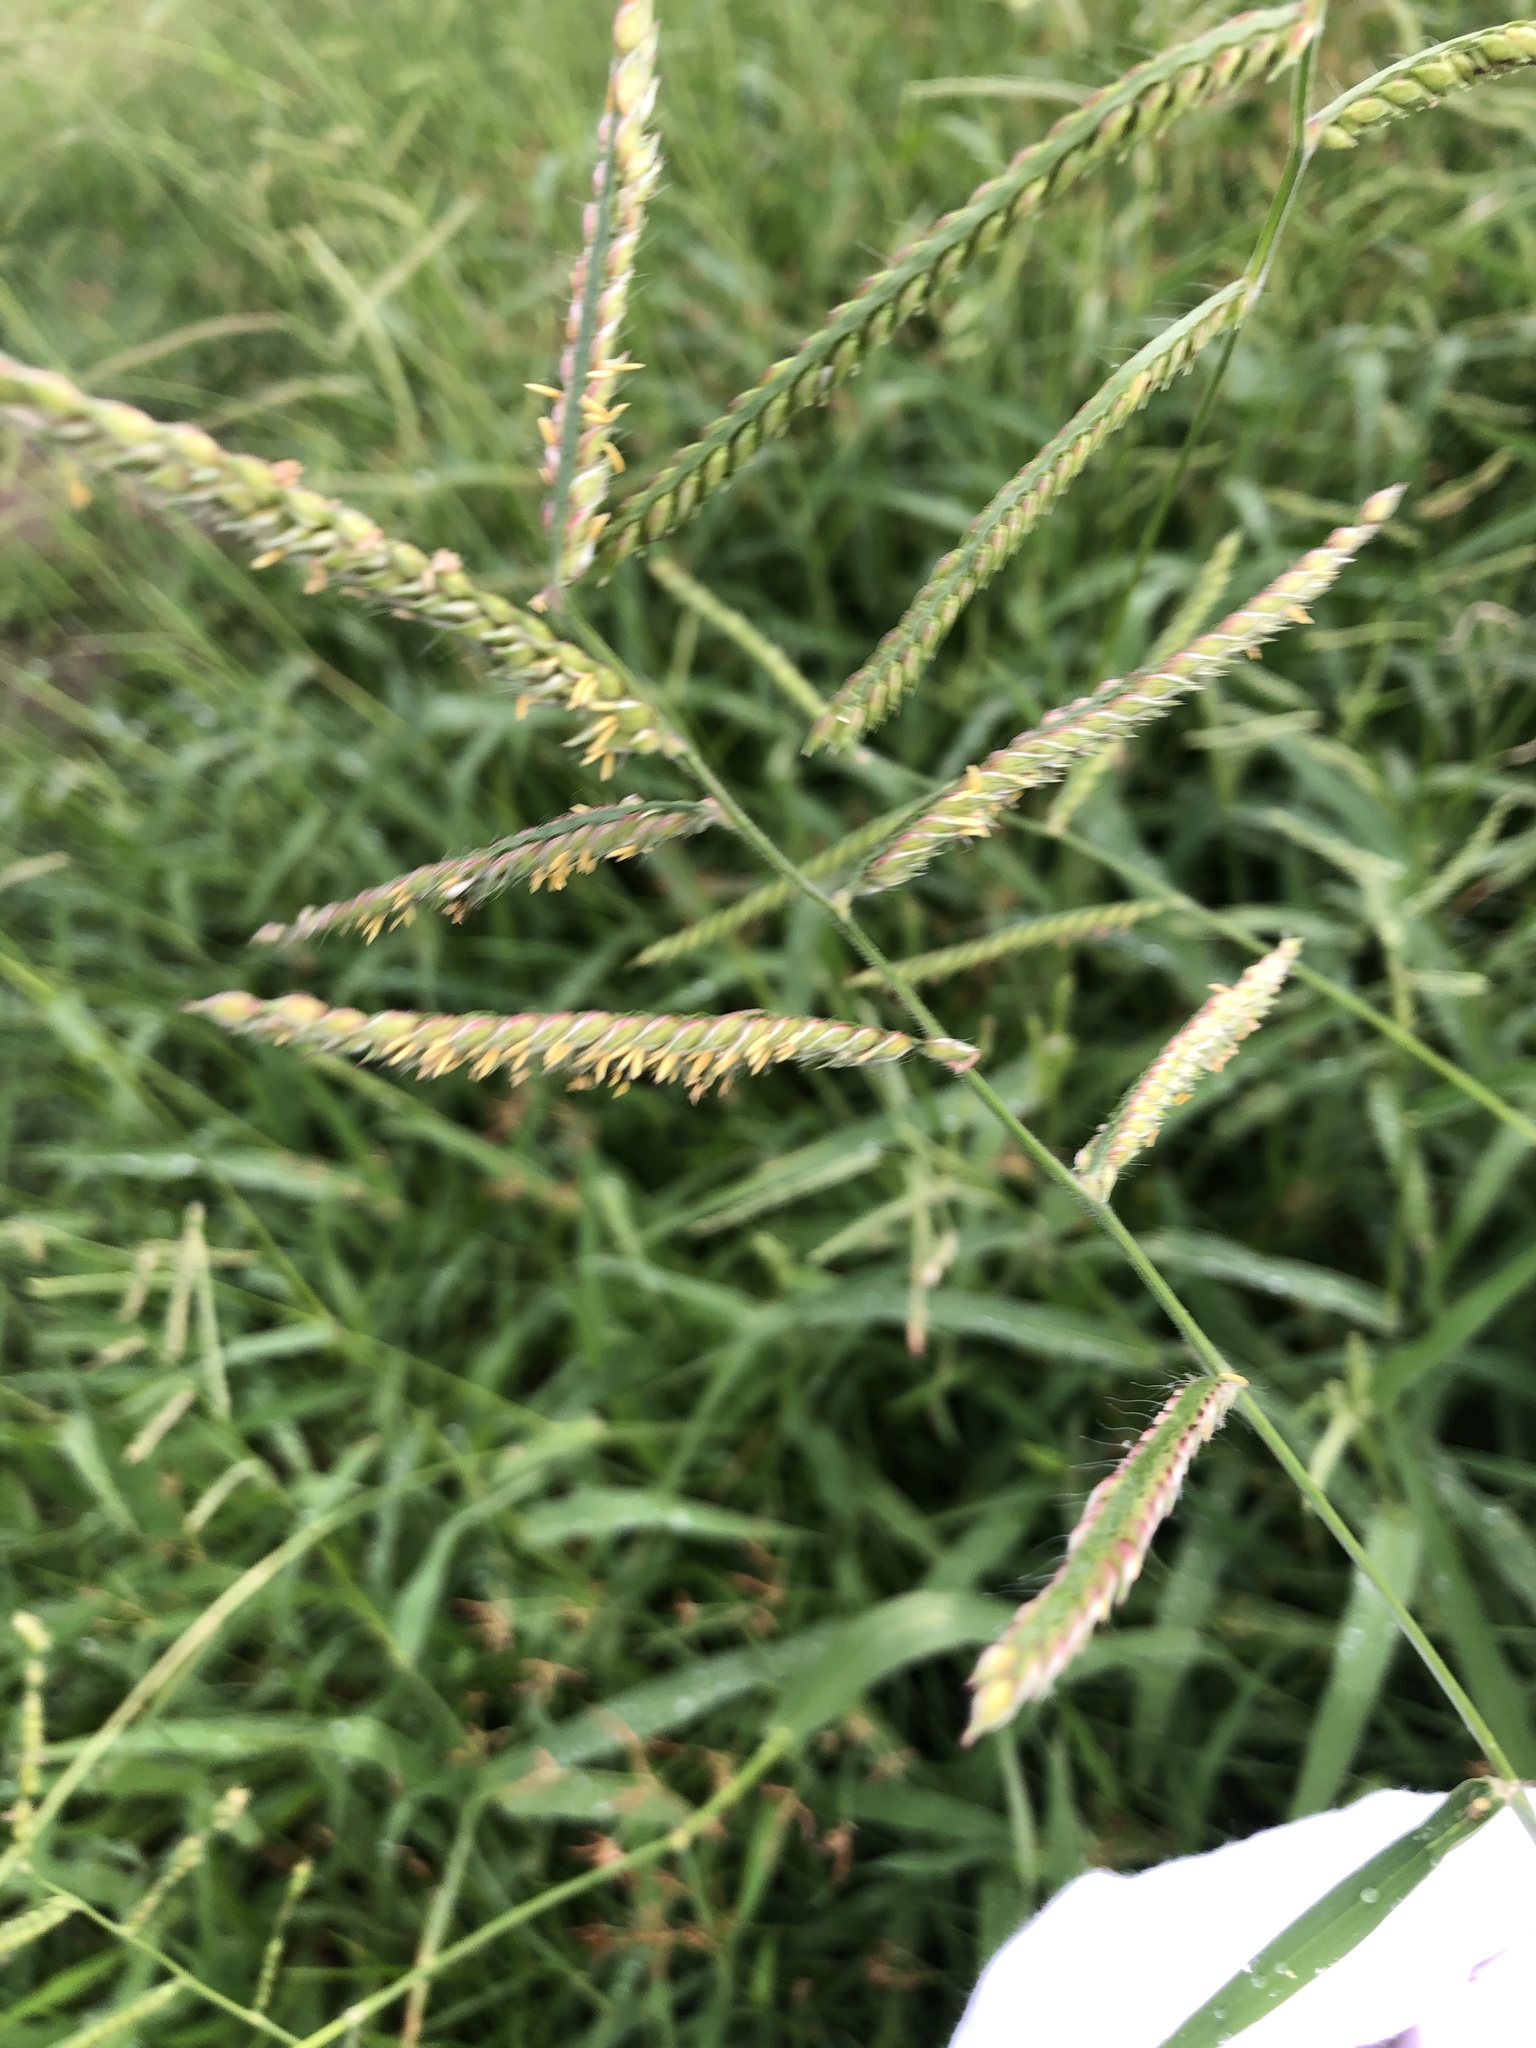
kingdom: Plantae
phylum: Tracheophyta
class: Liliopsida
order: Poales
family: Poaceae
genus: Urochloa
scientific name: Urochloa trichopus
